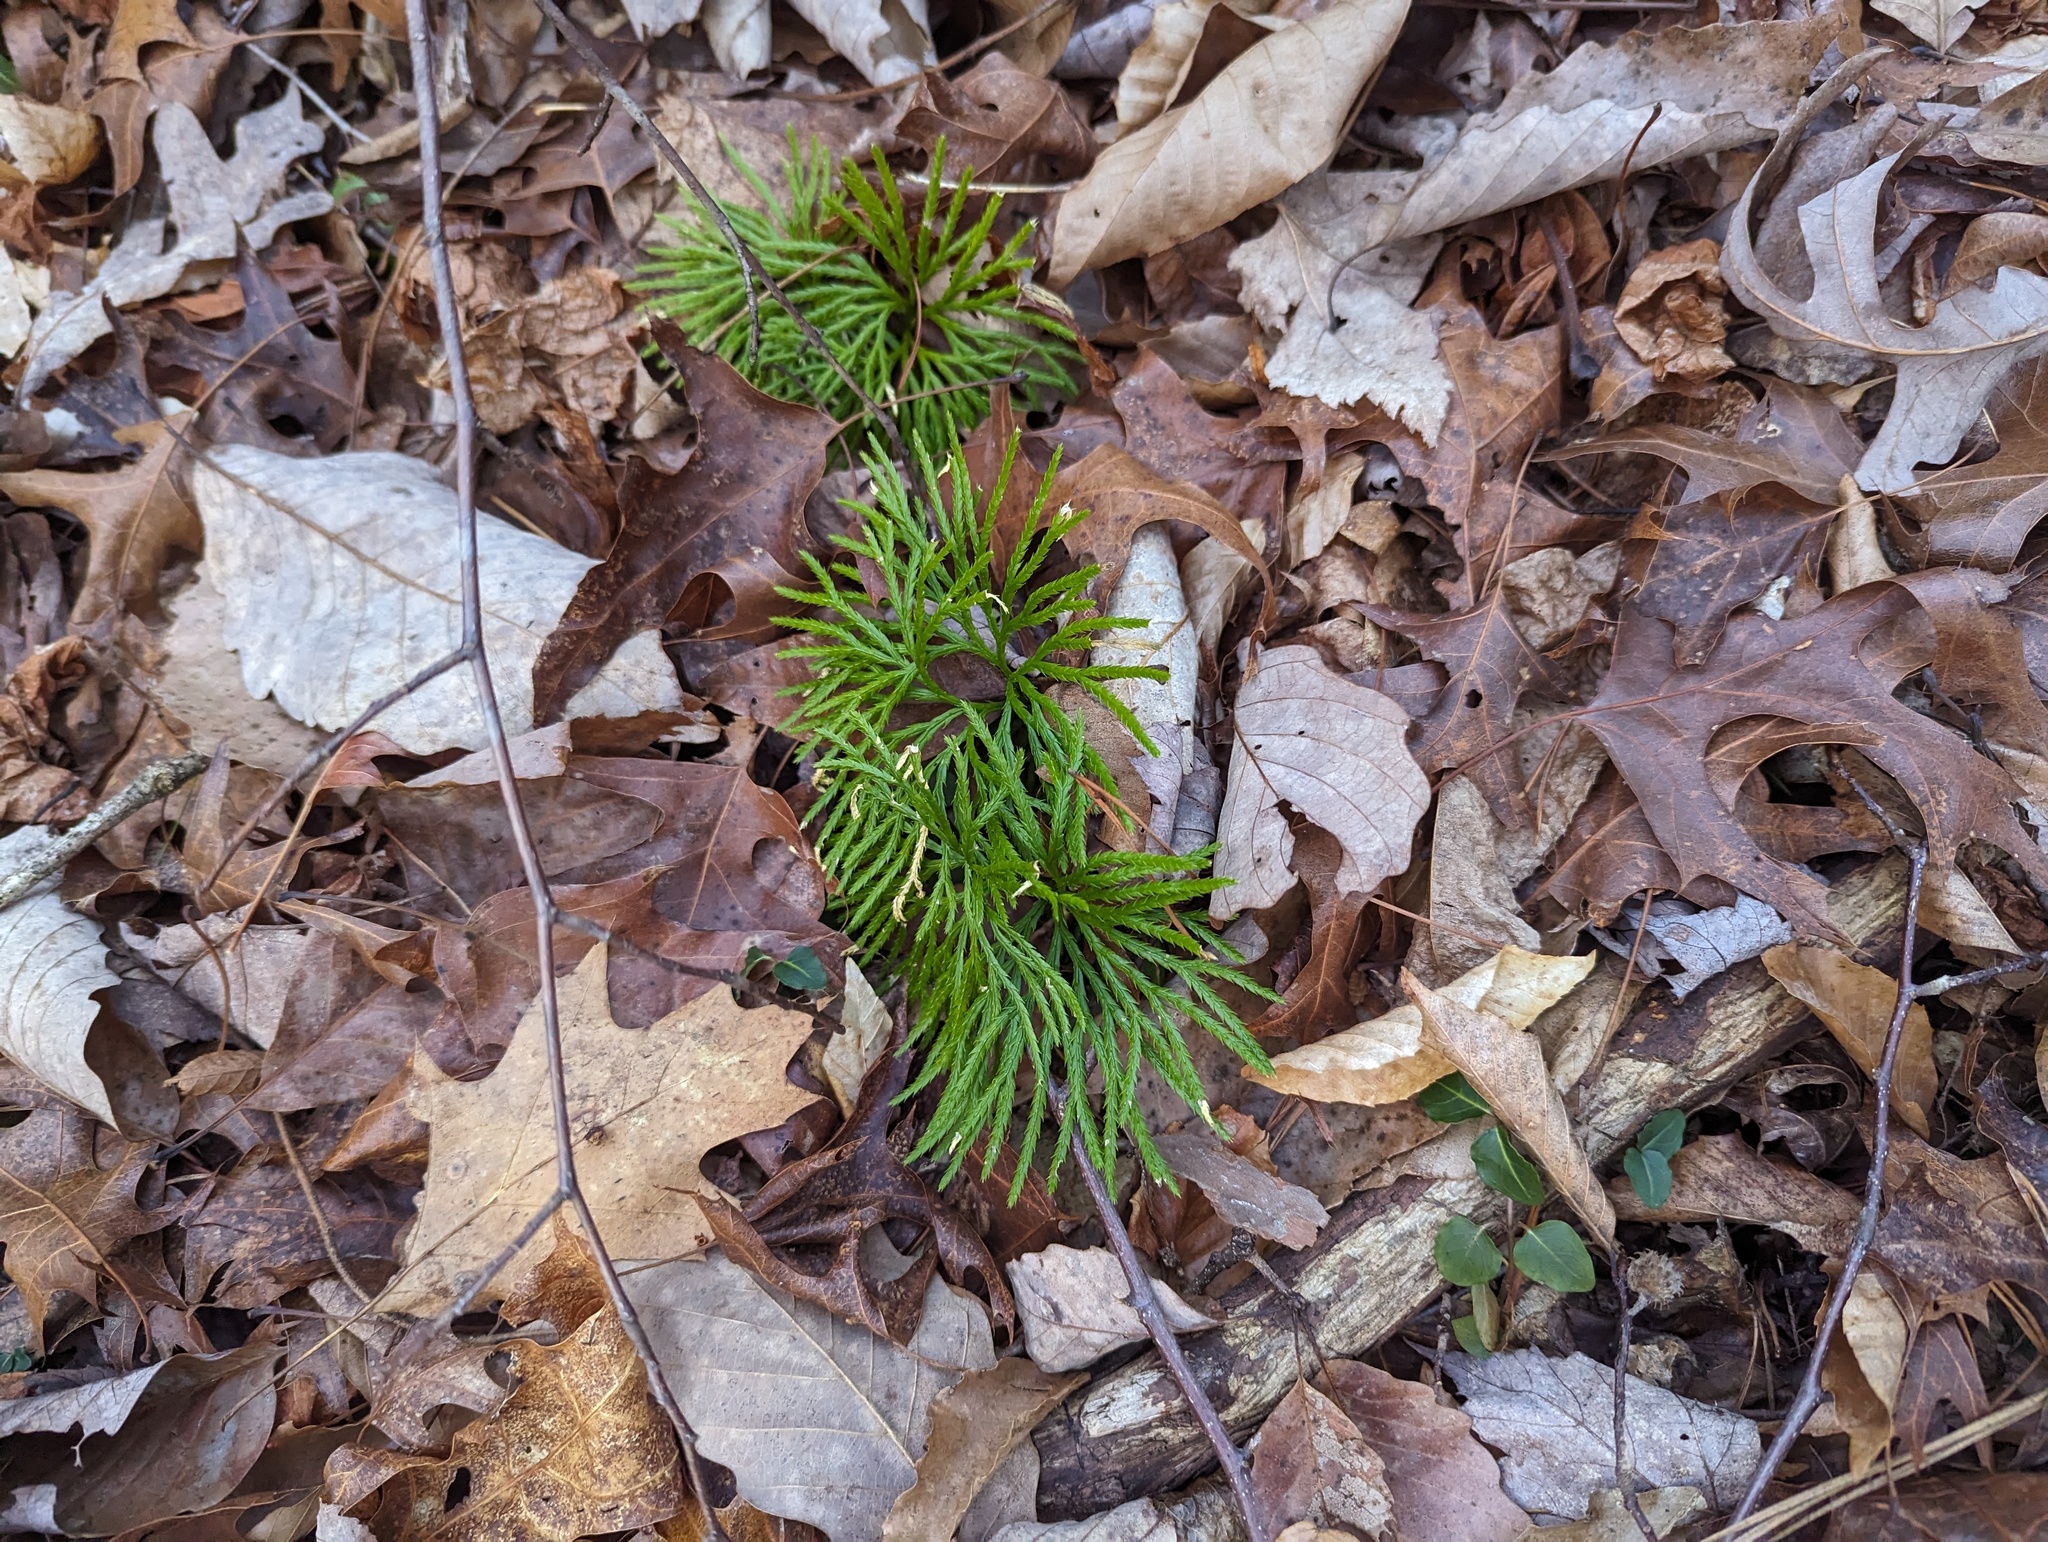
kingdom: Plantae
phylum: Tracheophyta
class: Lycopodiopsida
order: Lycopodiales
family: Lycopodiaceae
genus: Diphasiastrum
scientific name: Diphasiastrum digitatum
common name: Southern running-pine
